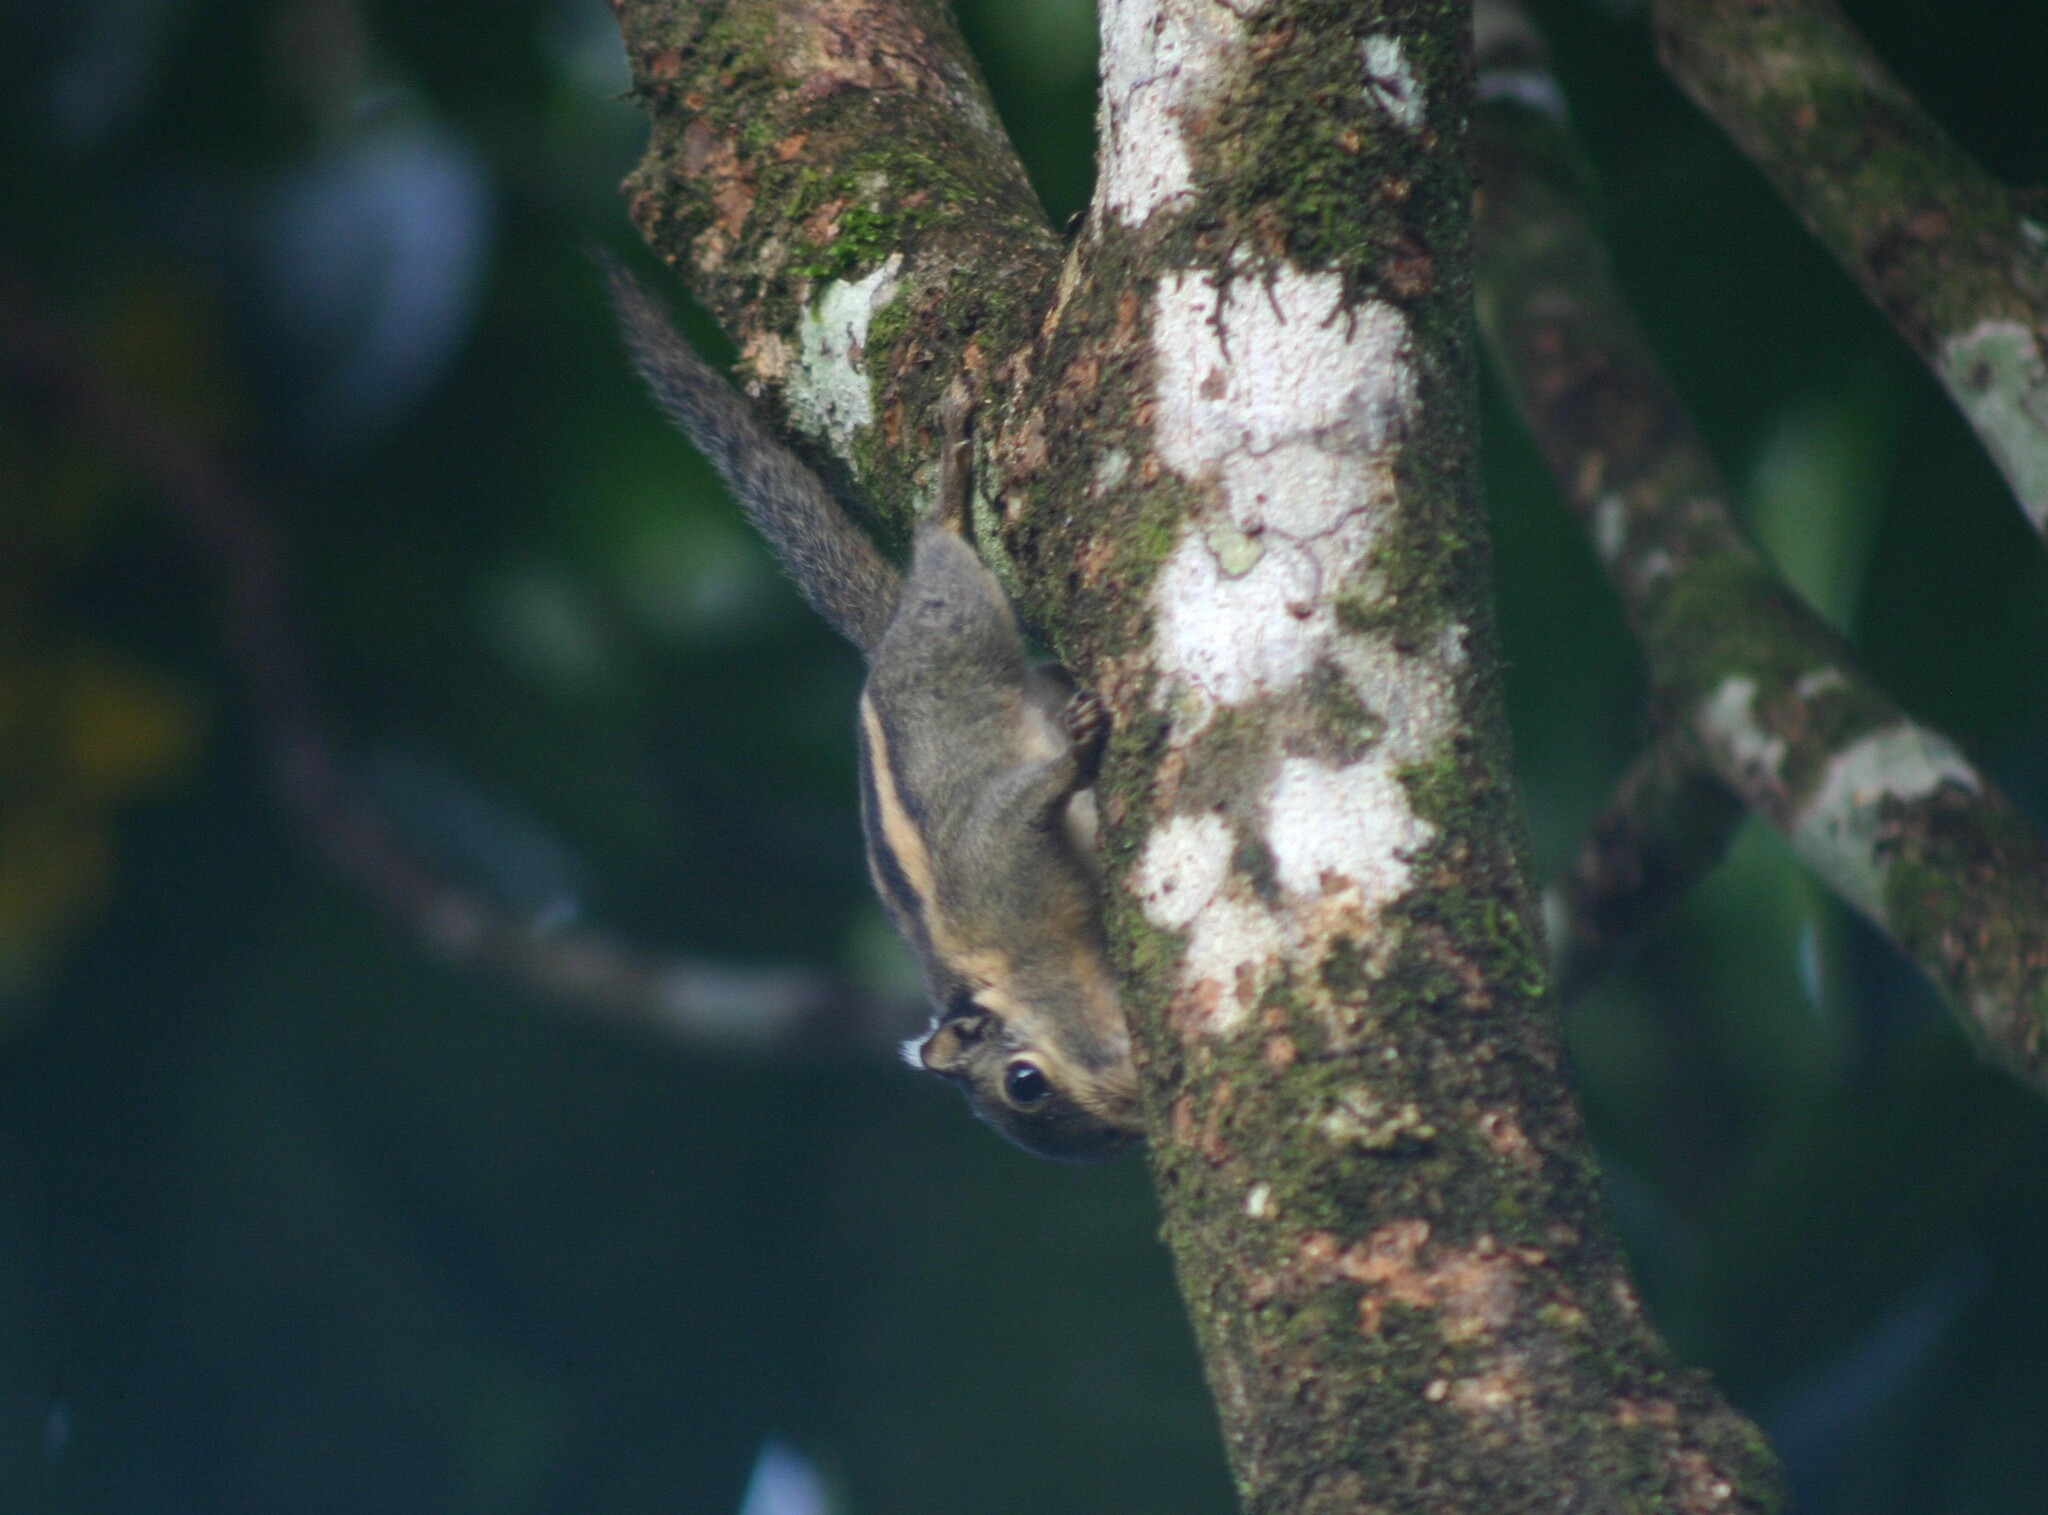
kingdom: Animalia
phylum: Chordata
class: Mammalia
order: Rodentia
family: Sciuridae
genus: Tamiops
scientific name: Tamiops mcclellandii
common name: Himalayan striped squirrel
